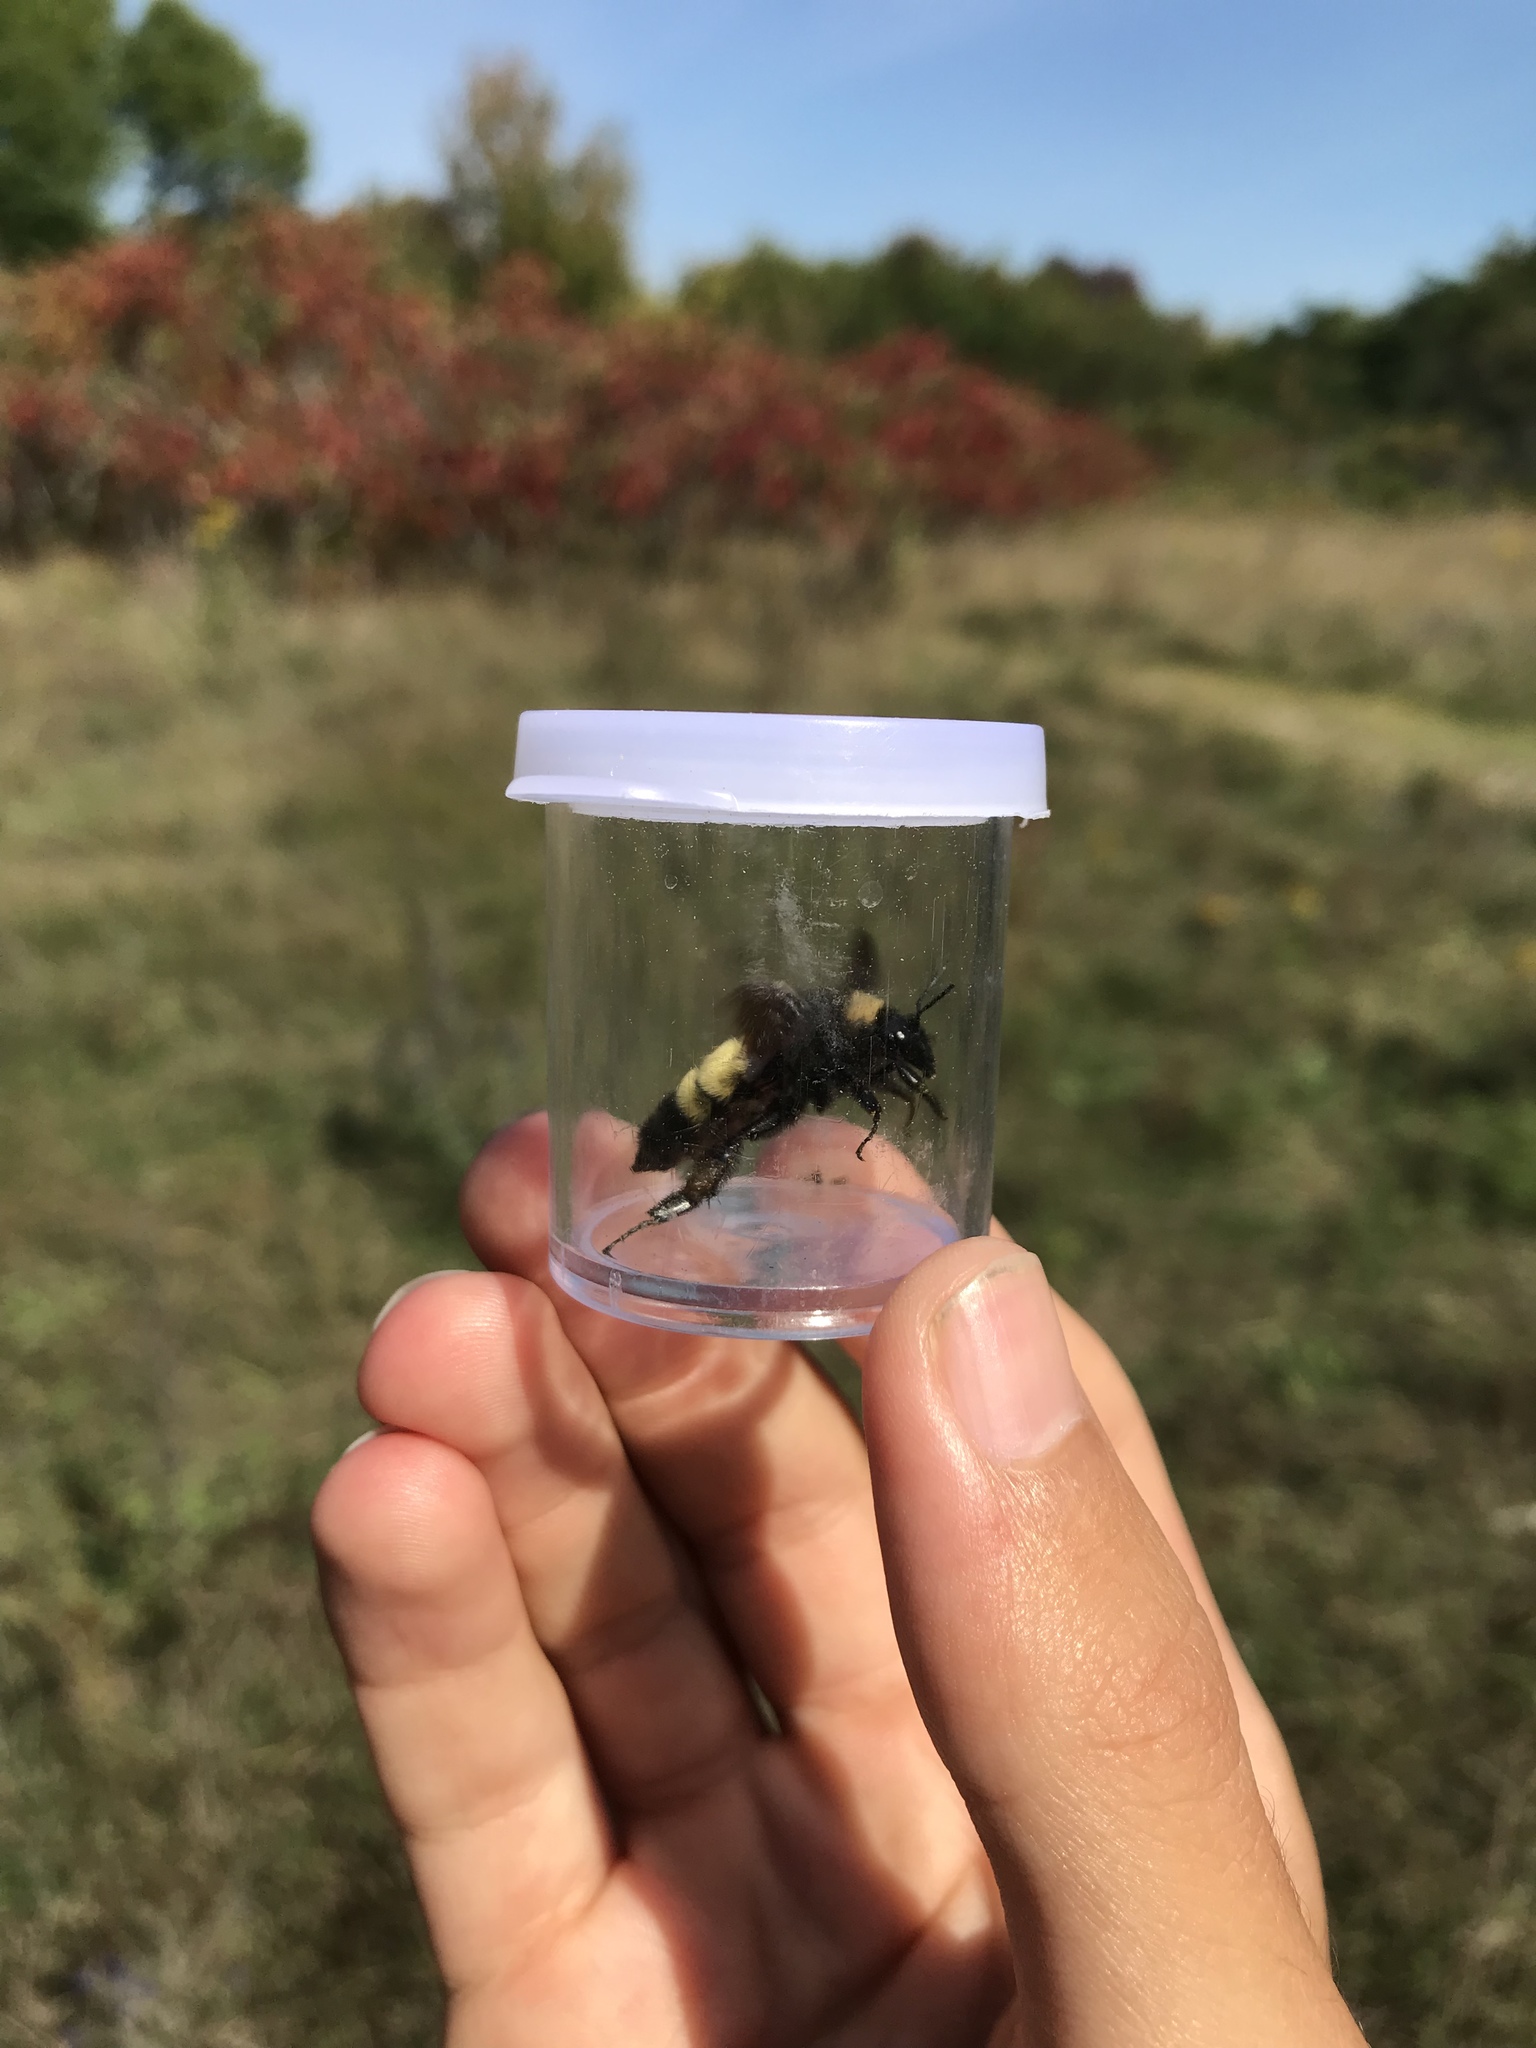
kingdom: Animalia
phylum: Arthropoda
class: Insecta
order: Hymenoptera
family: Apidae
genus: Bombus
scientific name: Bombus pensylvanicus
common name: Bumble bee
